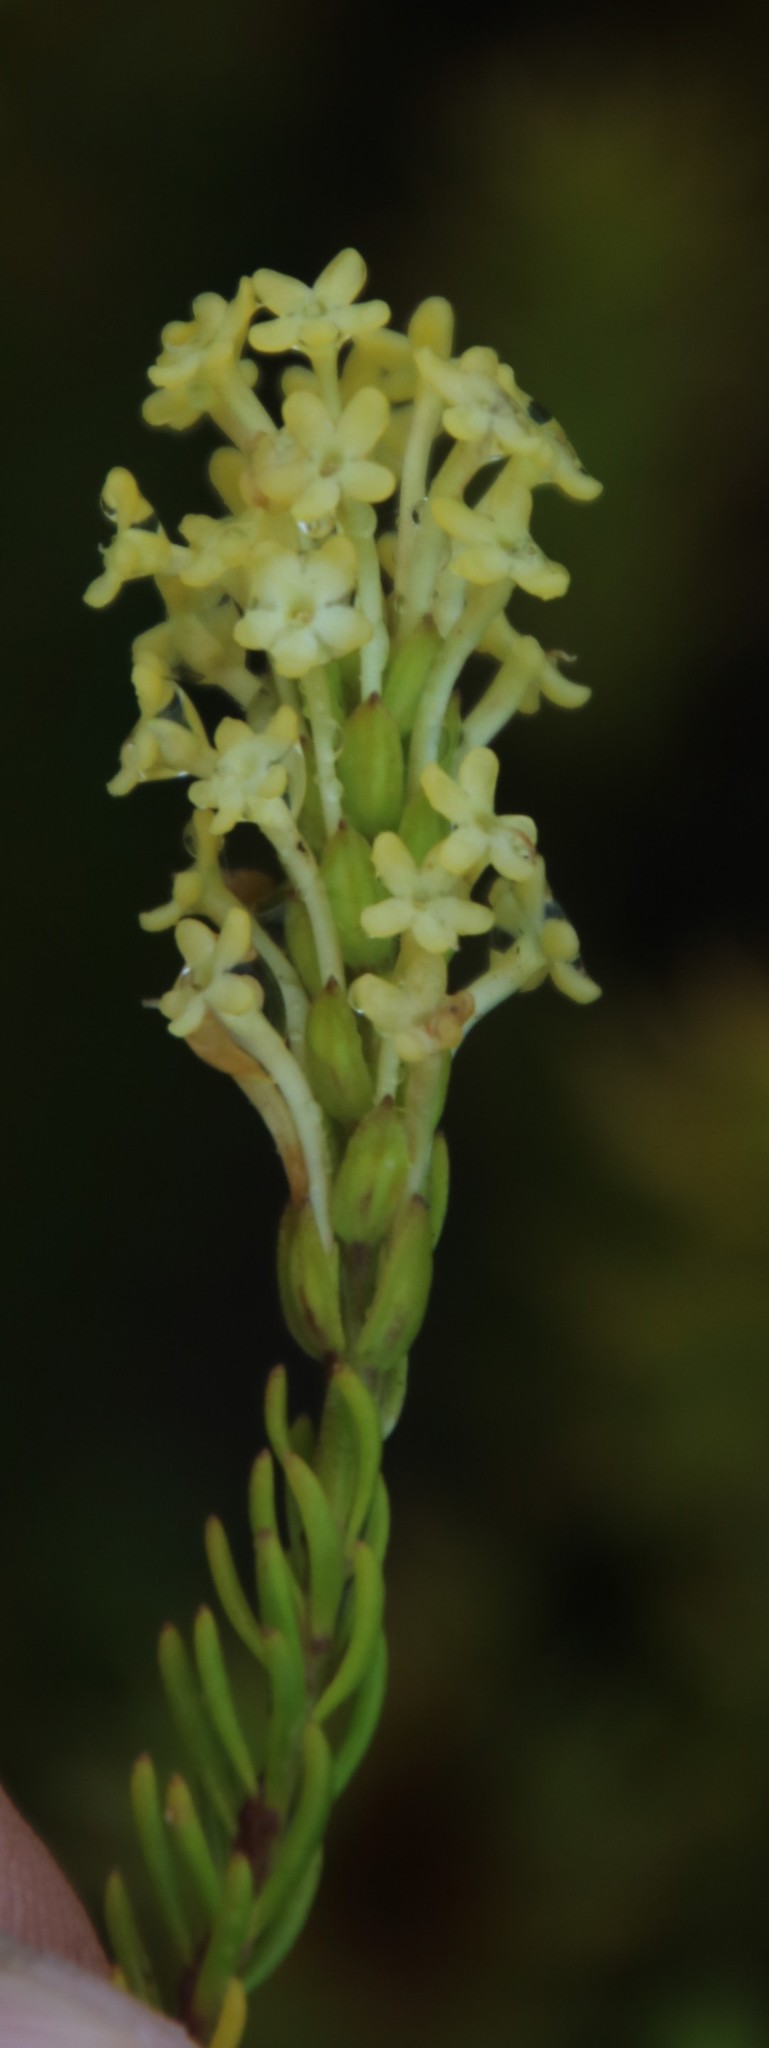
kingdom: Plantae
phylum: Tracheophyta
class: Magnoliopsida
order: Lamiales
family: Scrophulariaceae
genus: Microdon
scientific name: Microdon dubius
